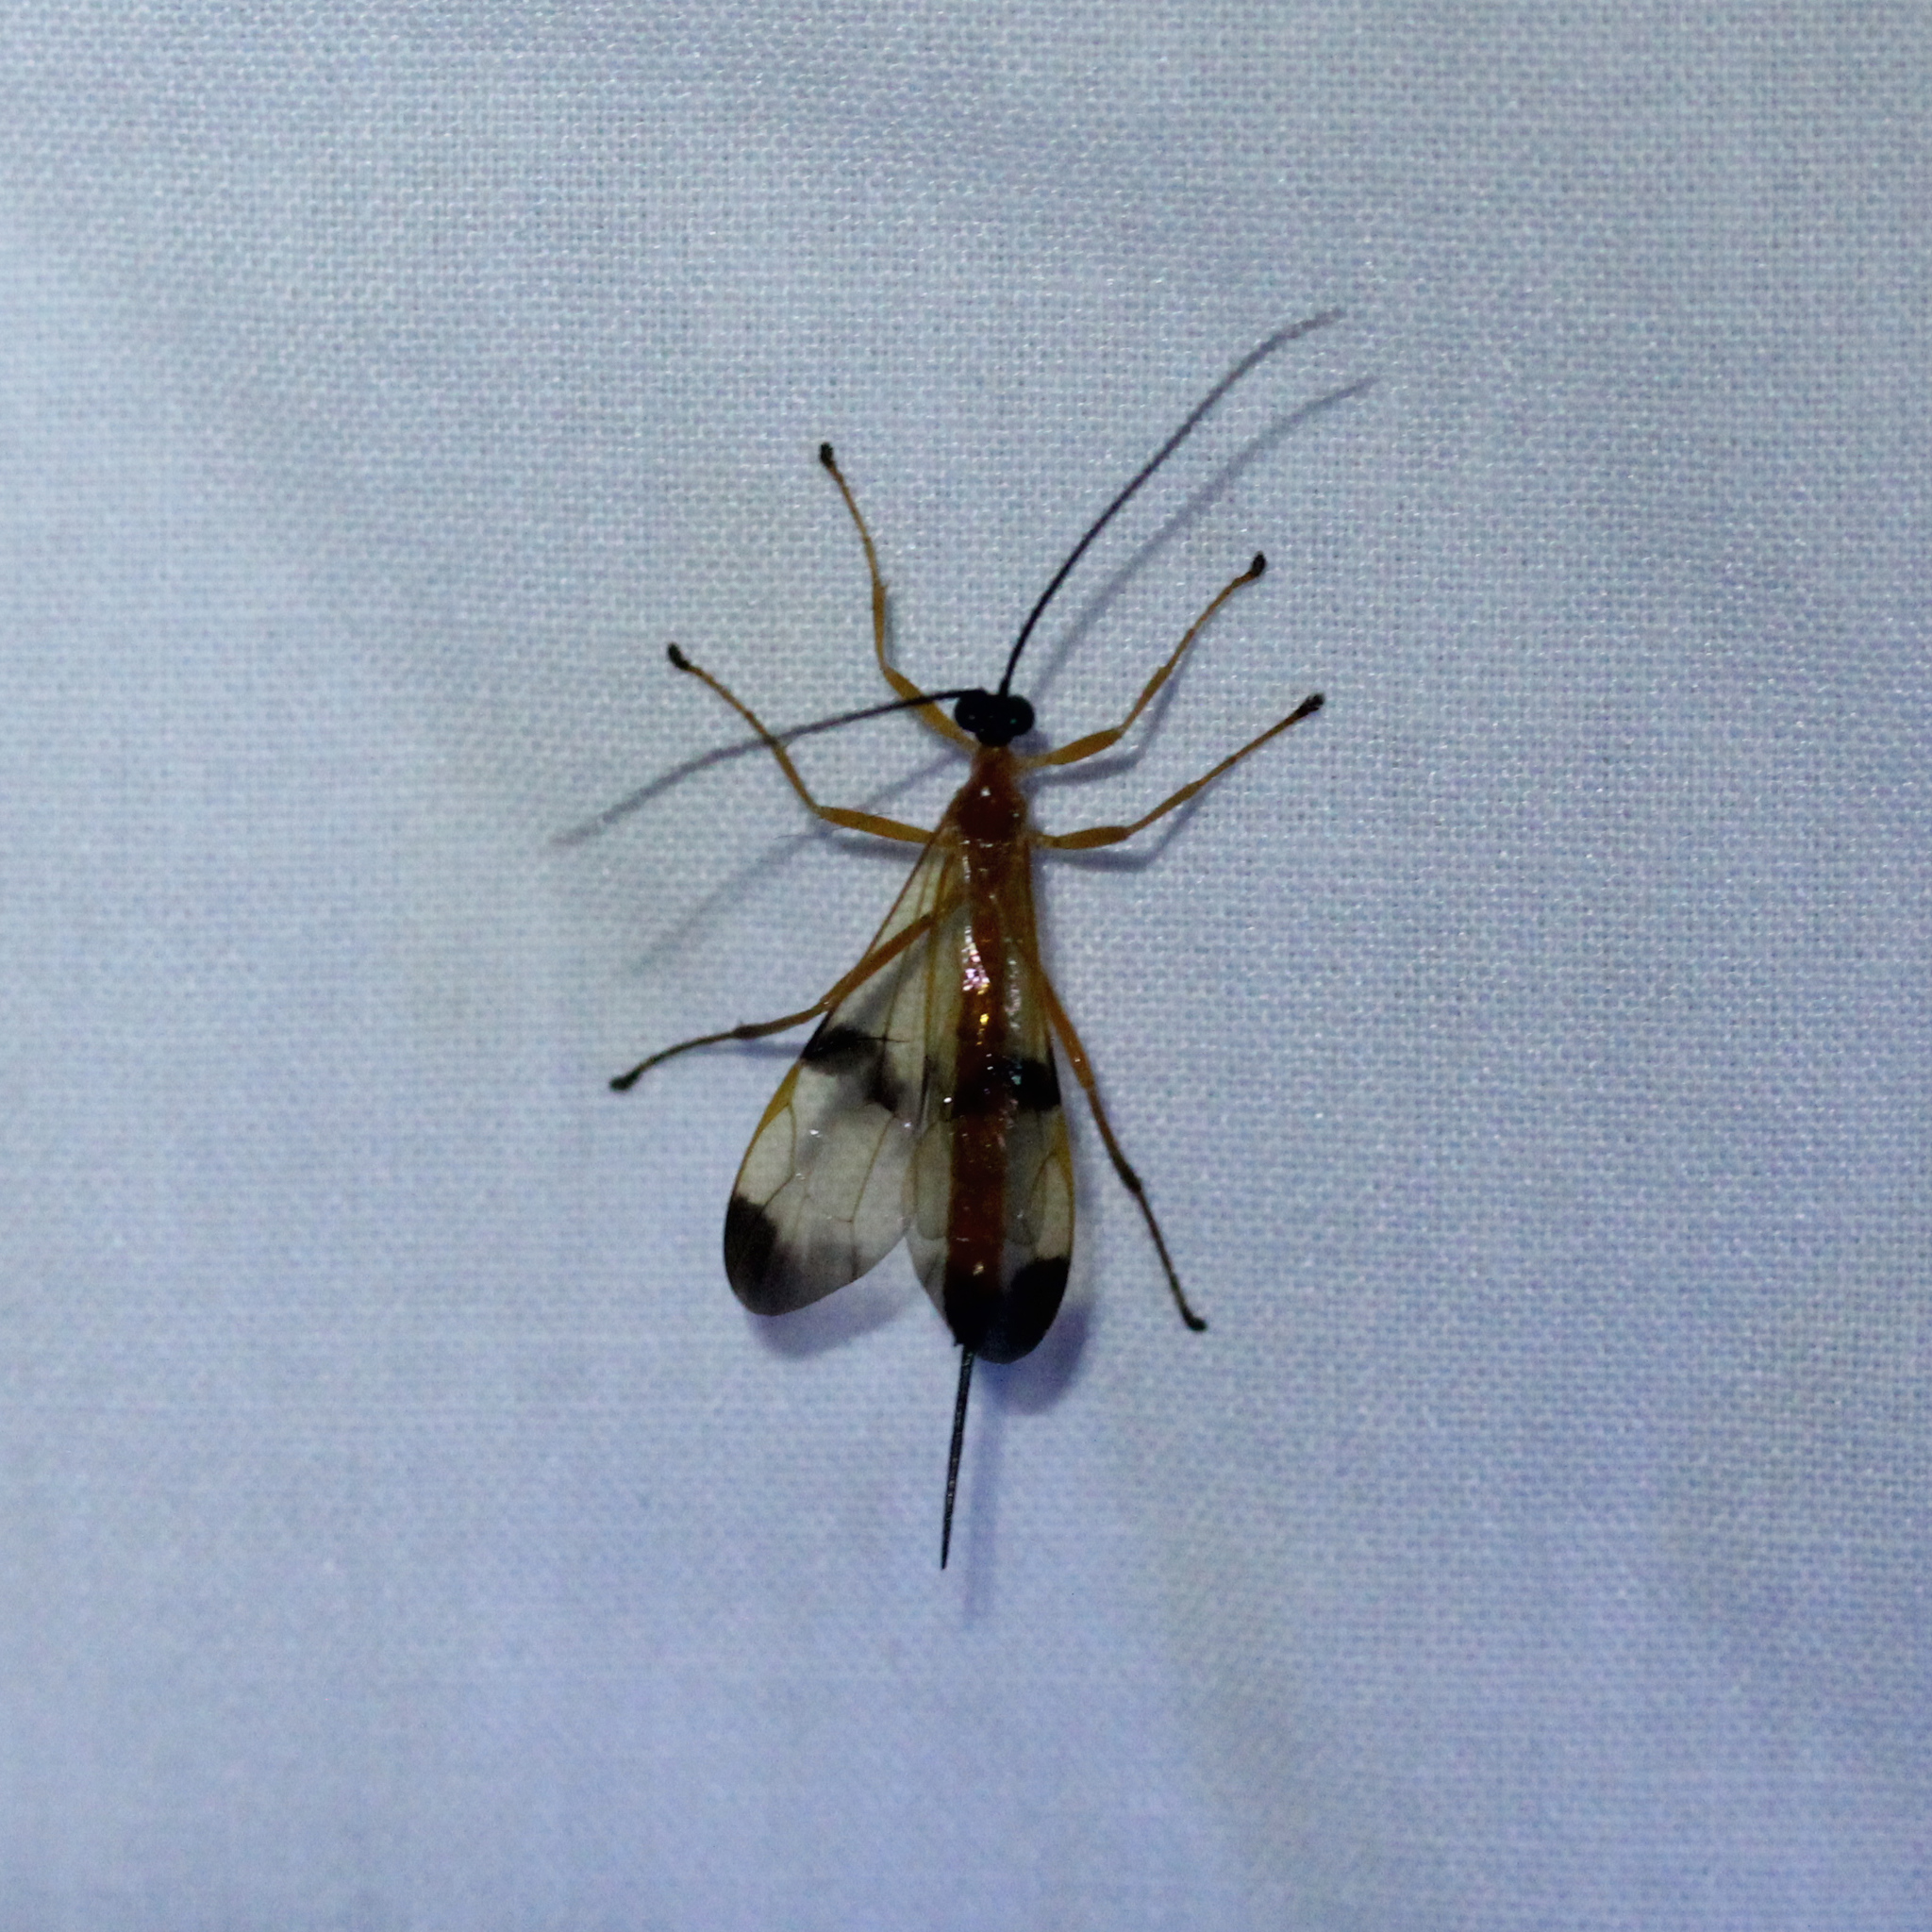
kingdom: Animalia
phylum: Arthropoda
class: Insecta
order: Hymenoptera
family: Ichneumonidae
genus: Acrotaphus
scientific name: Acrotaphus wiltii
